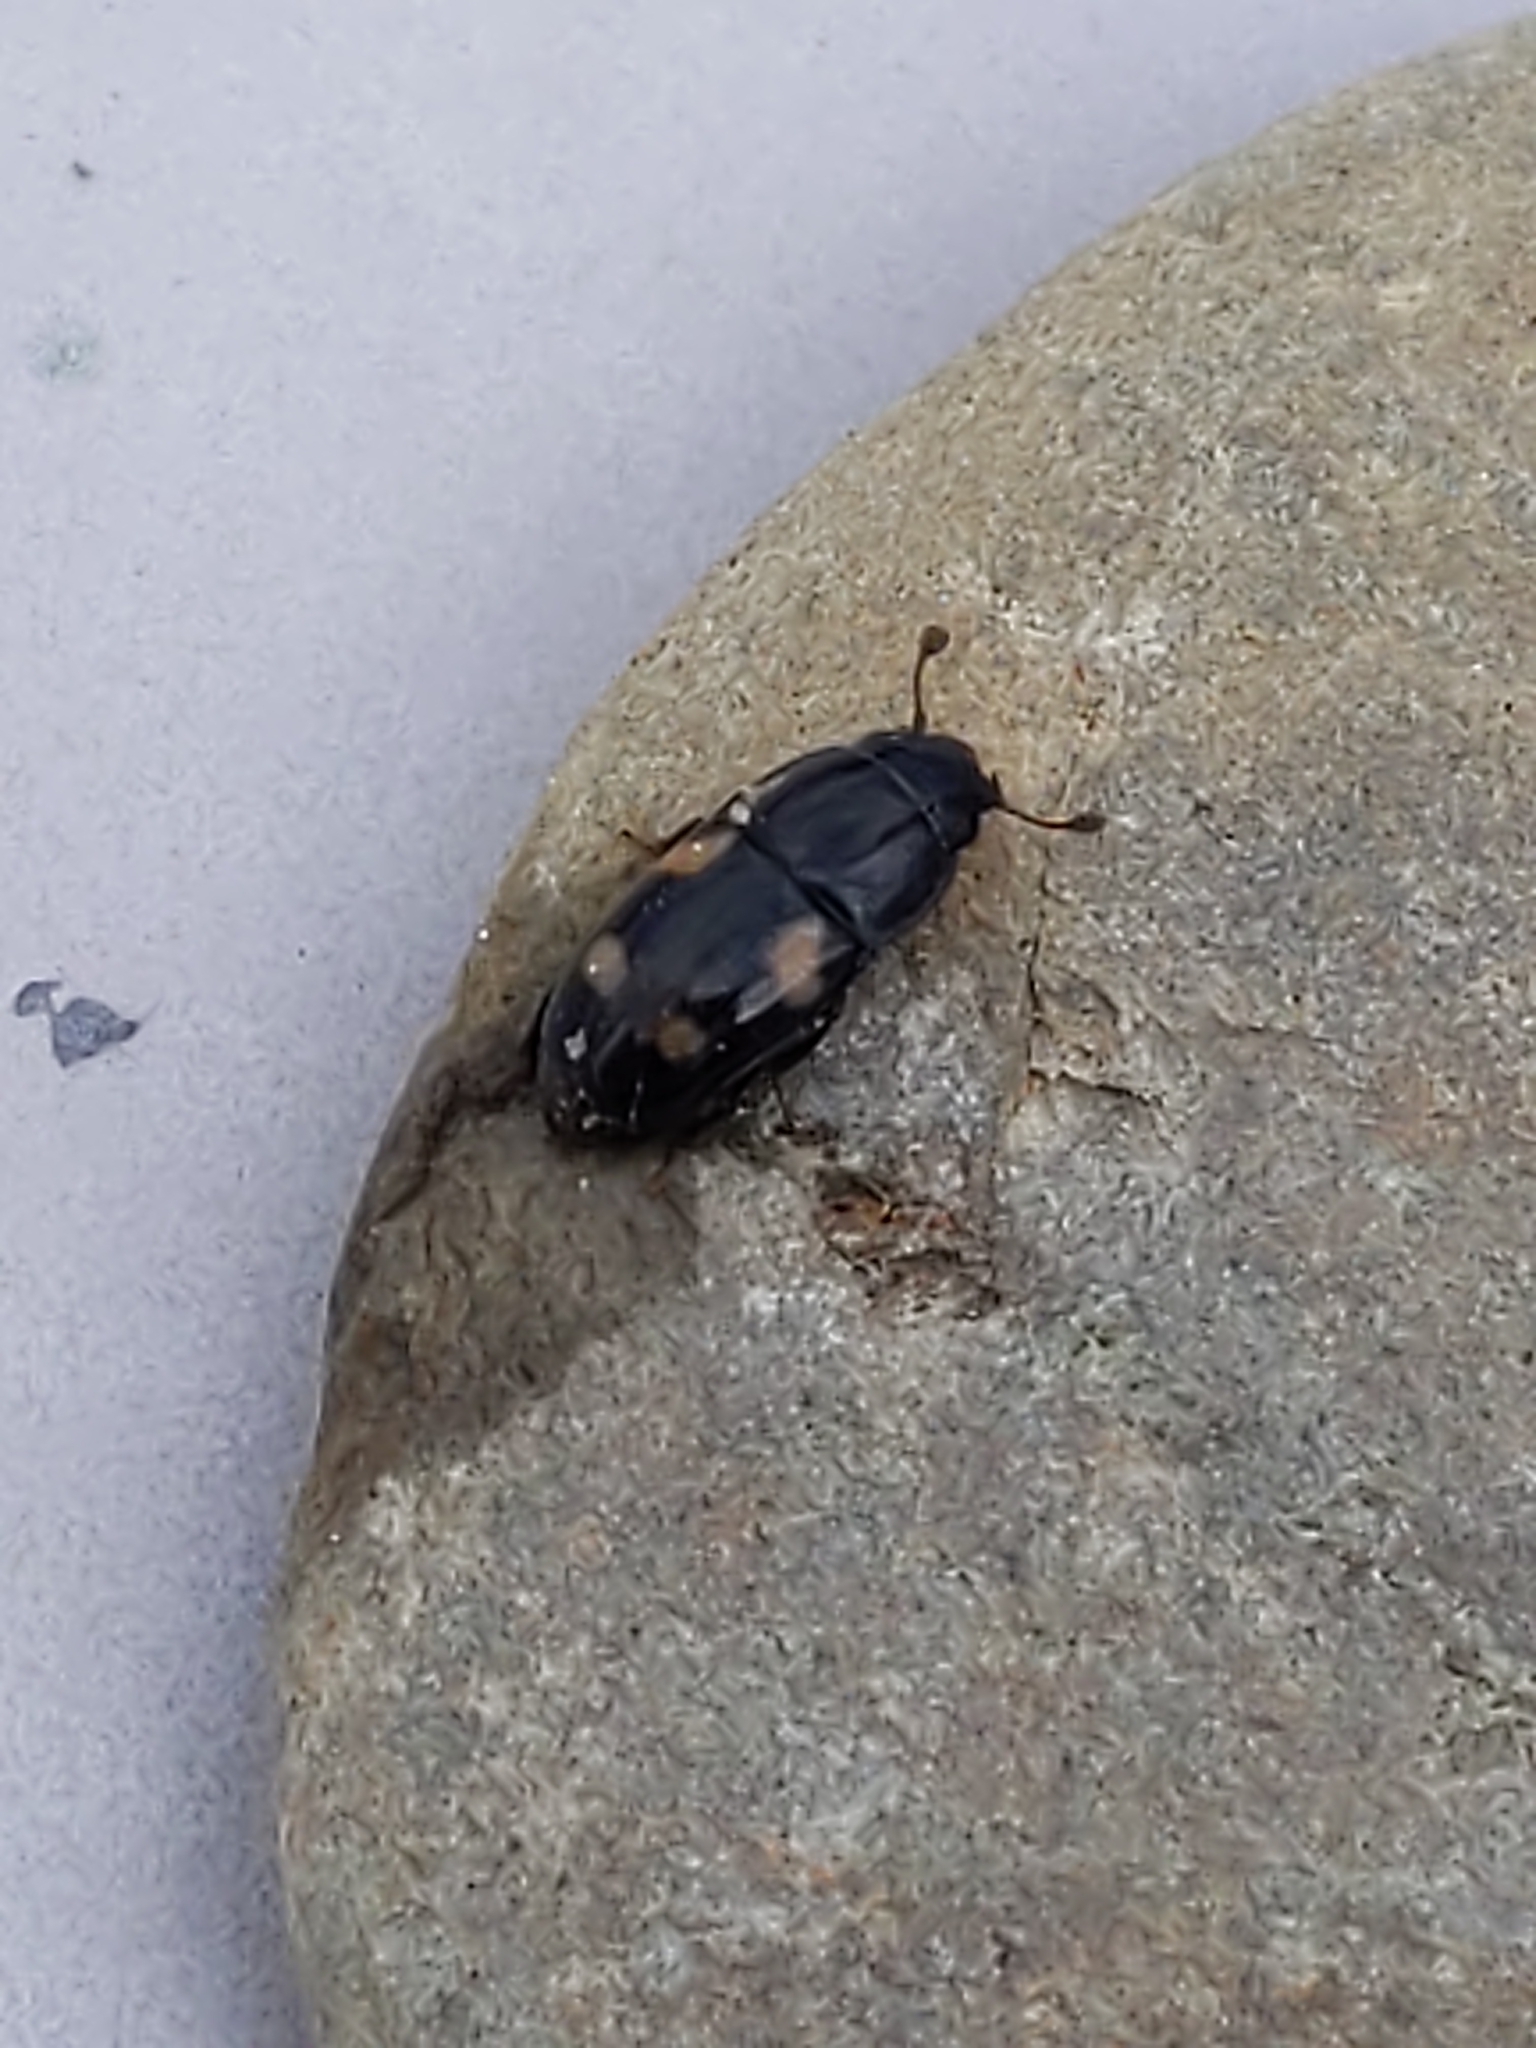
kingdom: Animalia
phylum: Arthropoda
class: Insecta
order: Coleoptera
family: Nitidulidae
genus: Glischrochilus
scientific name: Glischrochilus quadrisignatus
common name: Picnic beetle
